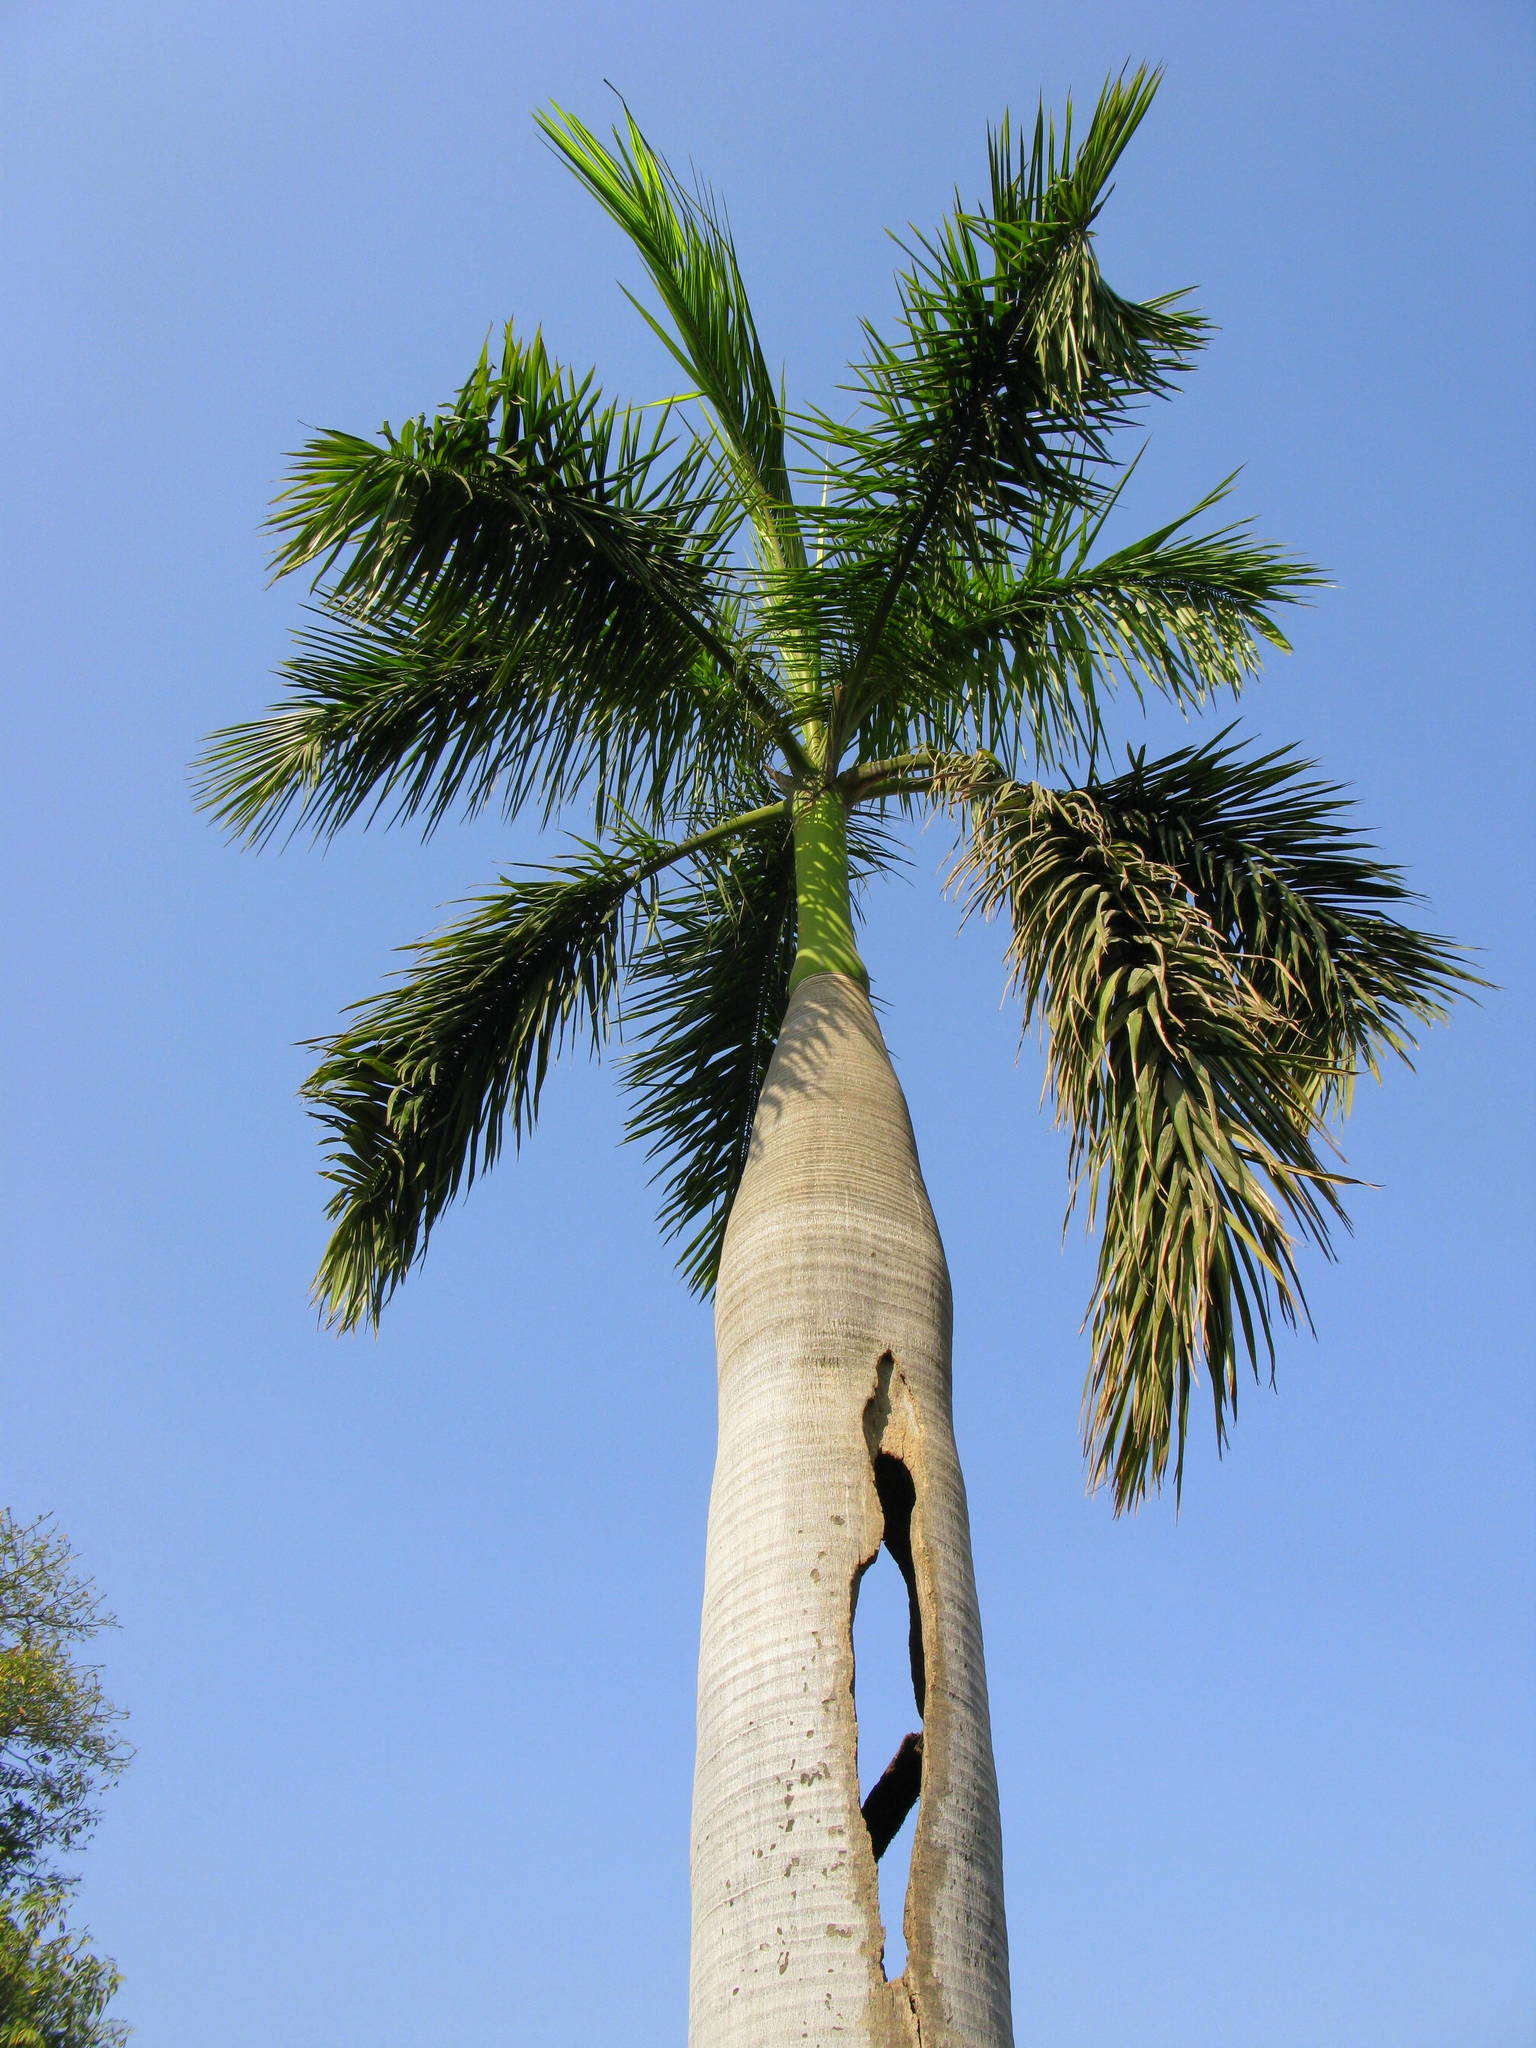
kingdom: Plantae
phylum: Tracheophyta
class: Liliopsida
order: Arecales
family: Arecaceae
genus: Roystonea
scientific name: Roystonea regia
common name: Florida royal palm
